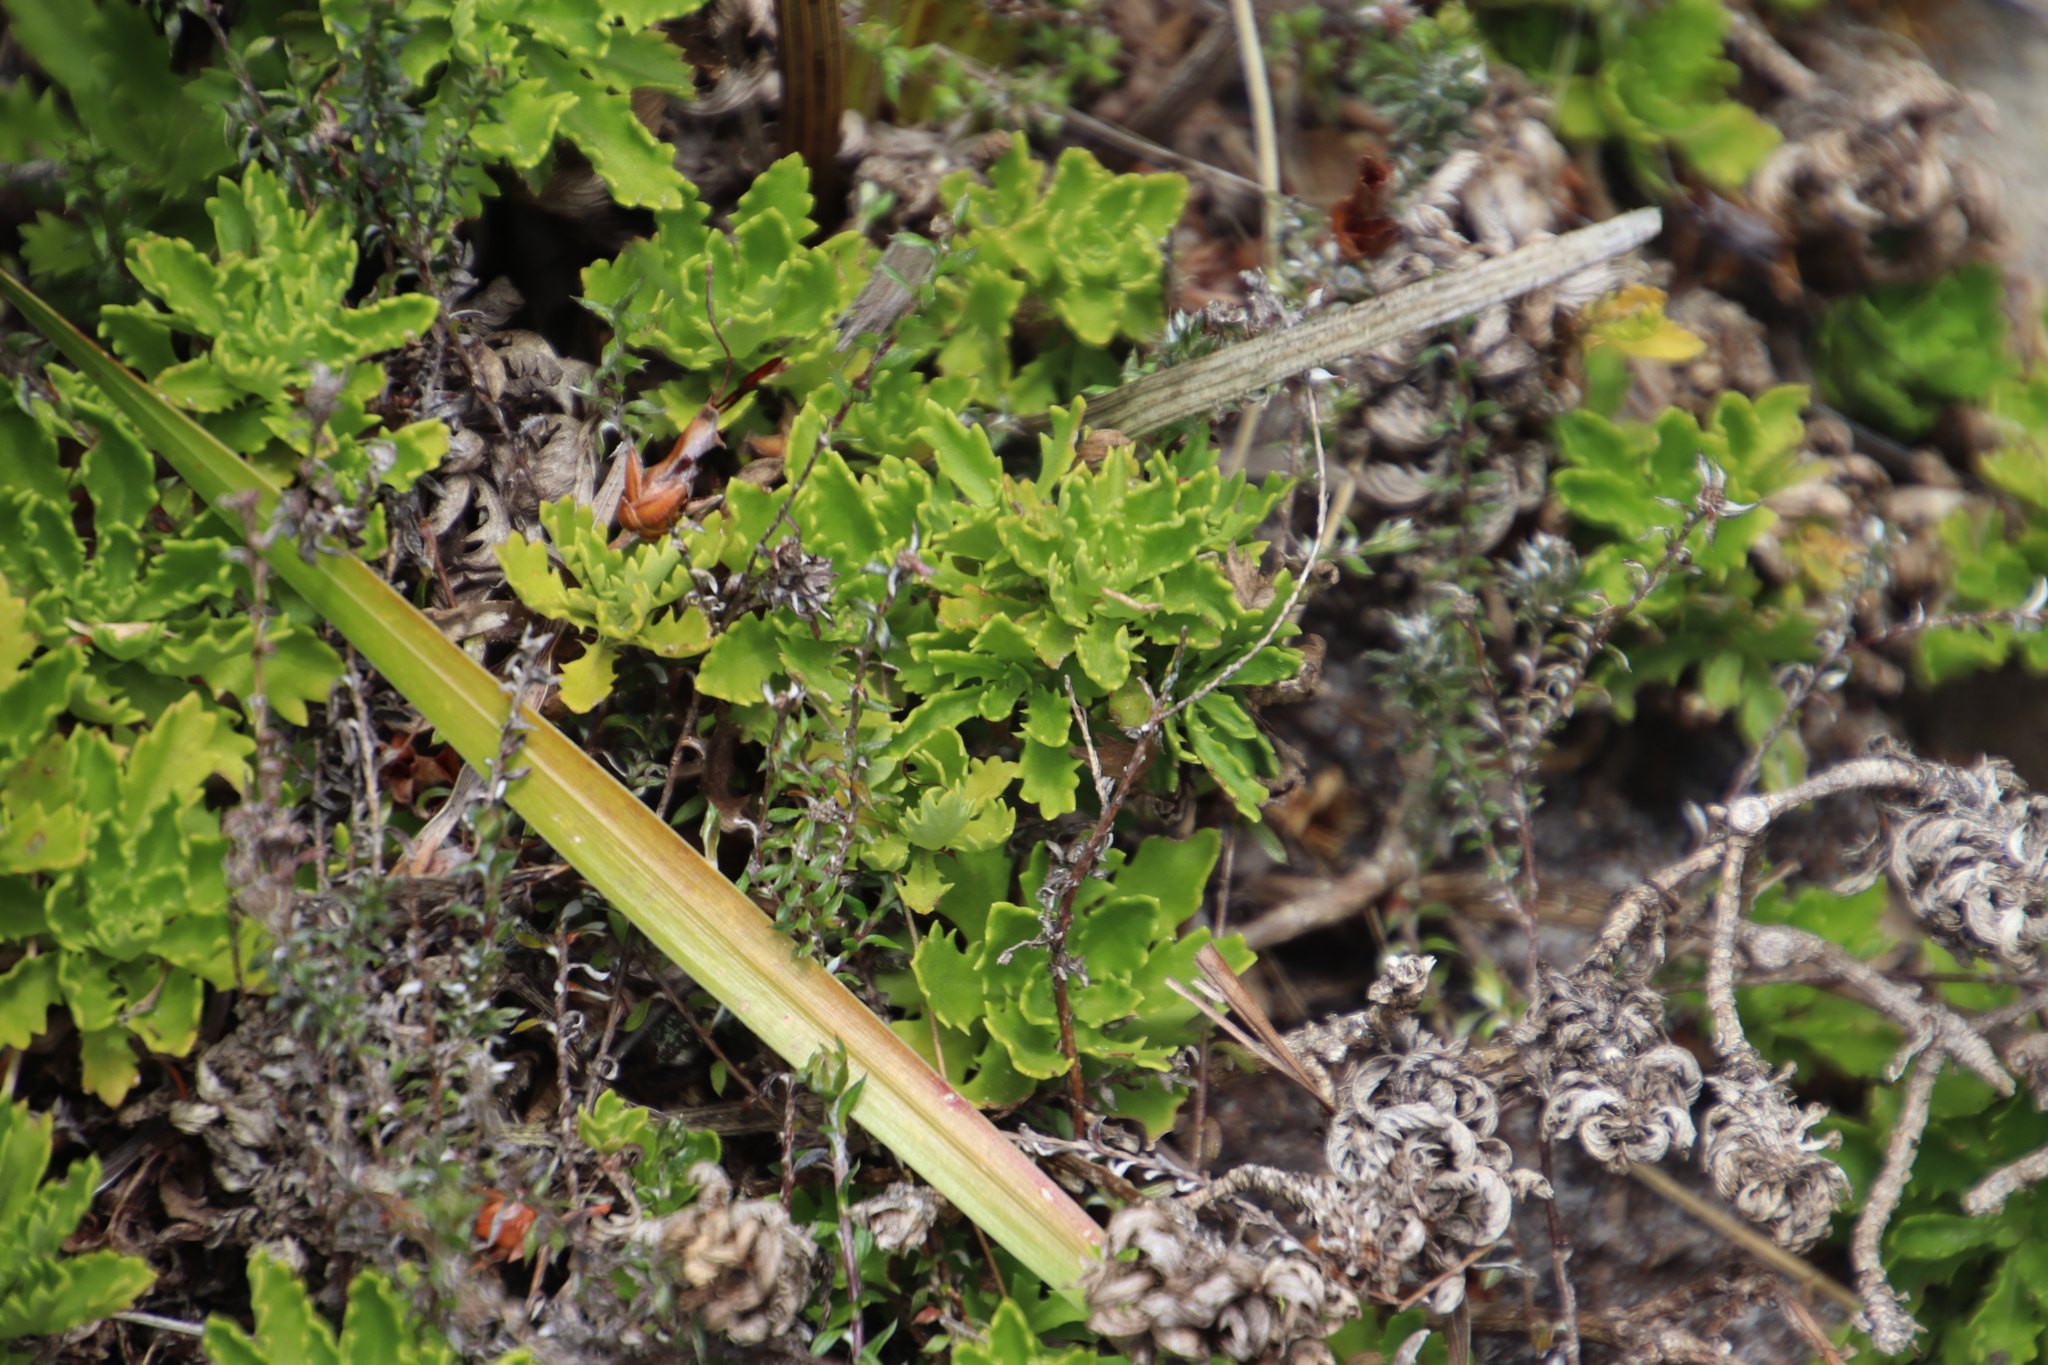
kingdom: Plantae
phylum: Tracheophyta
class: Magnoliopsida
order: Asterales
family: Asteraceae
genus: Osmitopsis
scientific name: Osmitopsis dentata
